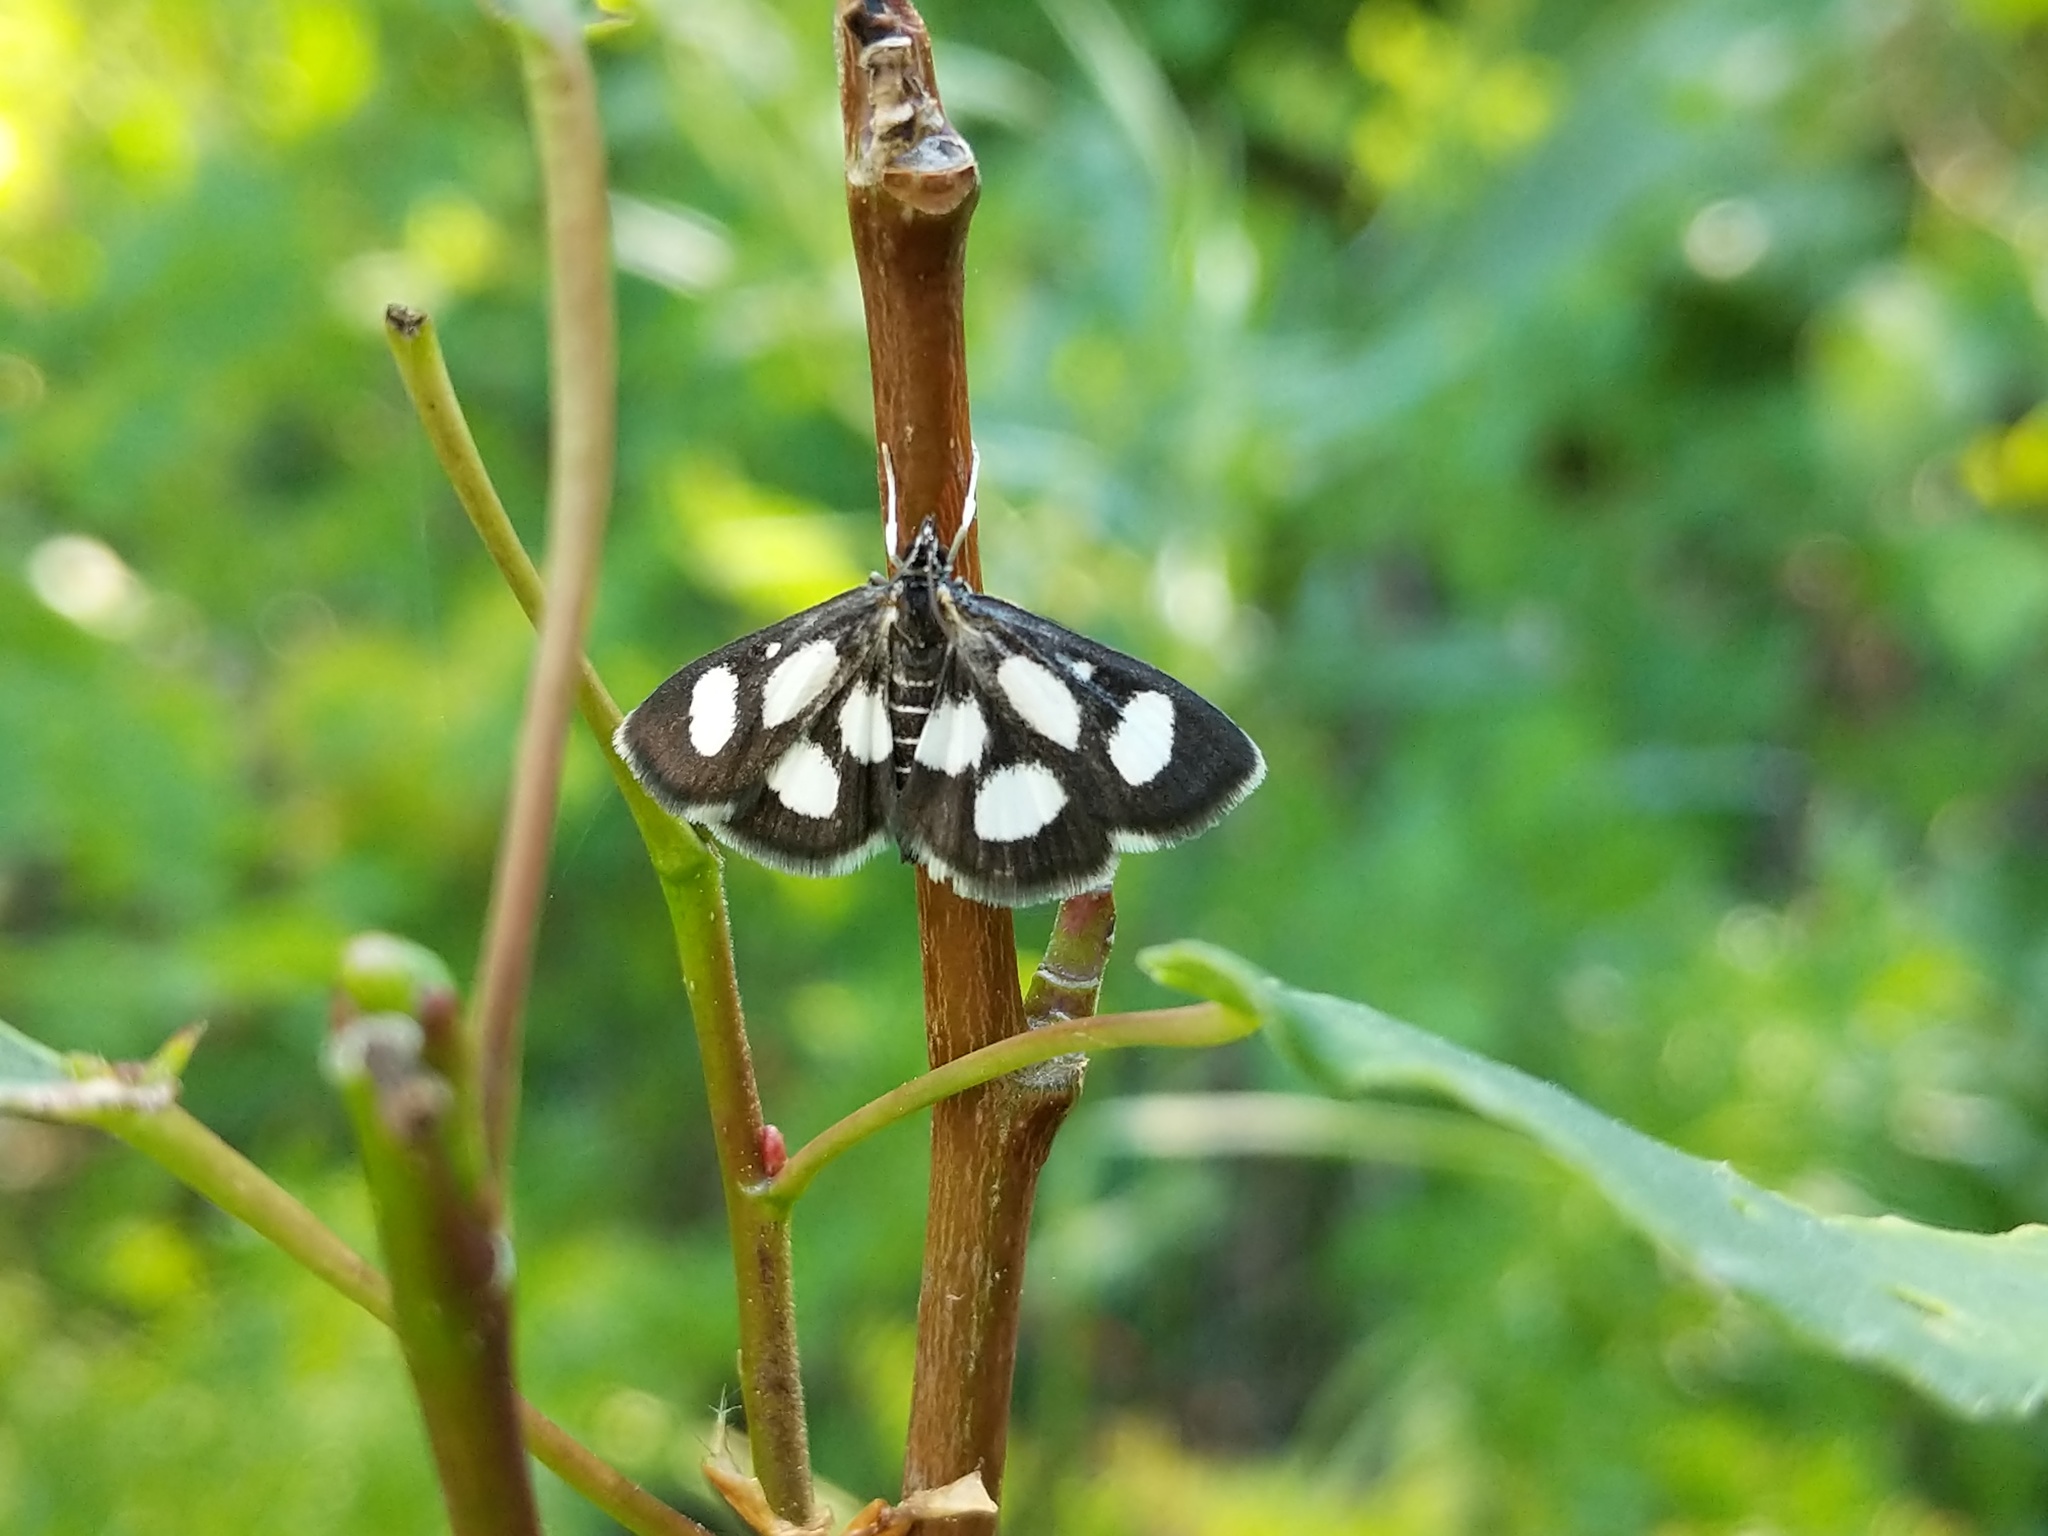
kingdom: Animalia
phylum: Arthropoda
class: Insecta
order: Lepidoptera
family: Crambidae
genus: Anania
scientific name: Anania funebris
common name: White-spotted sable moth
